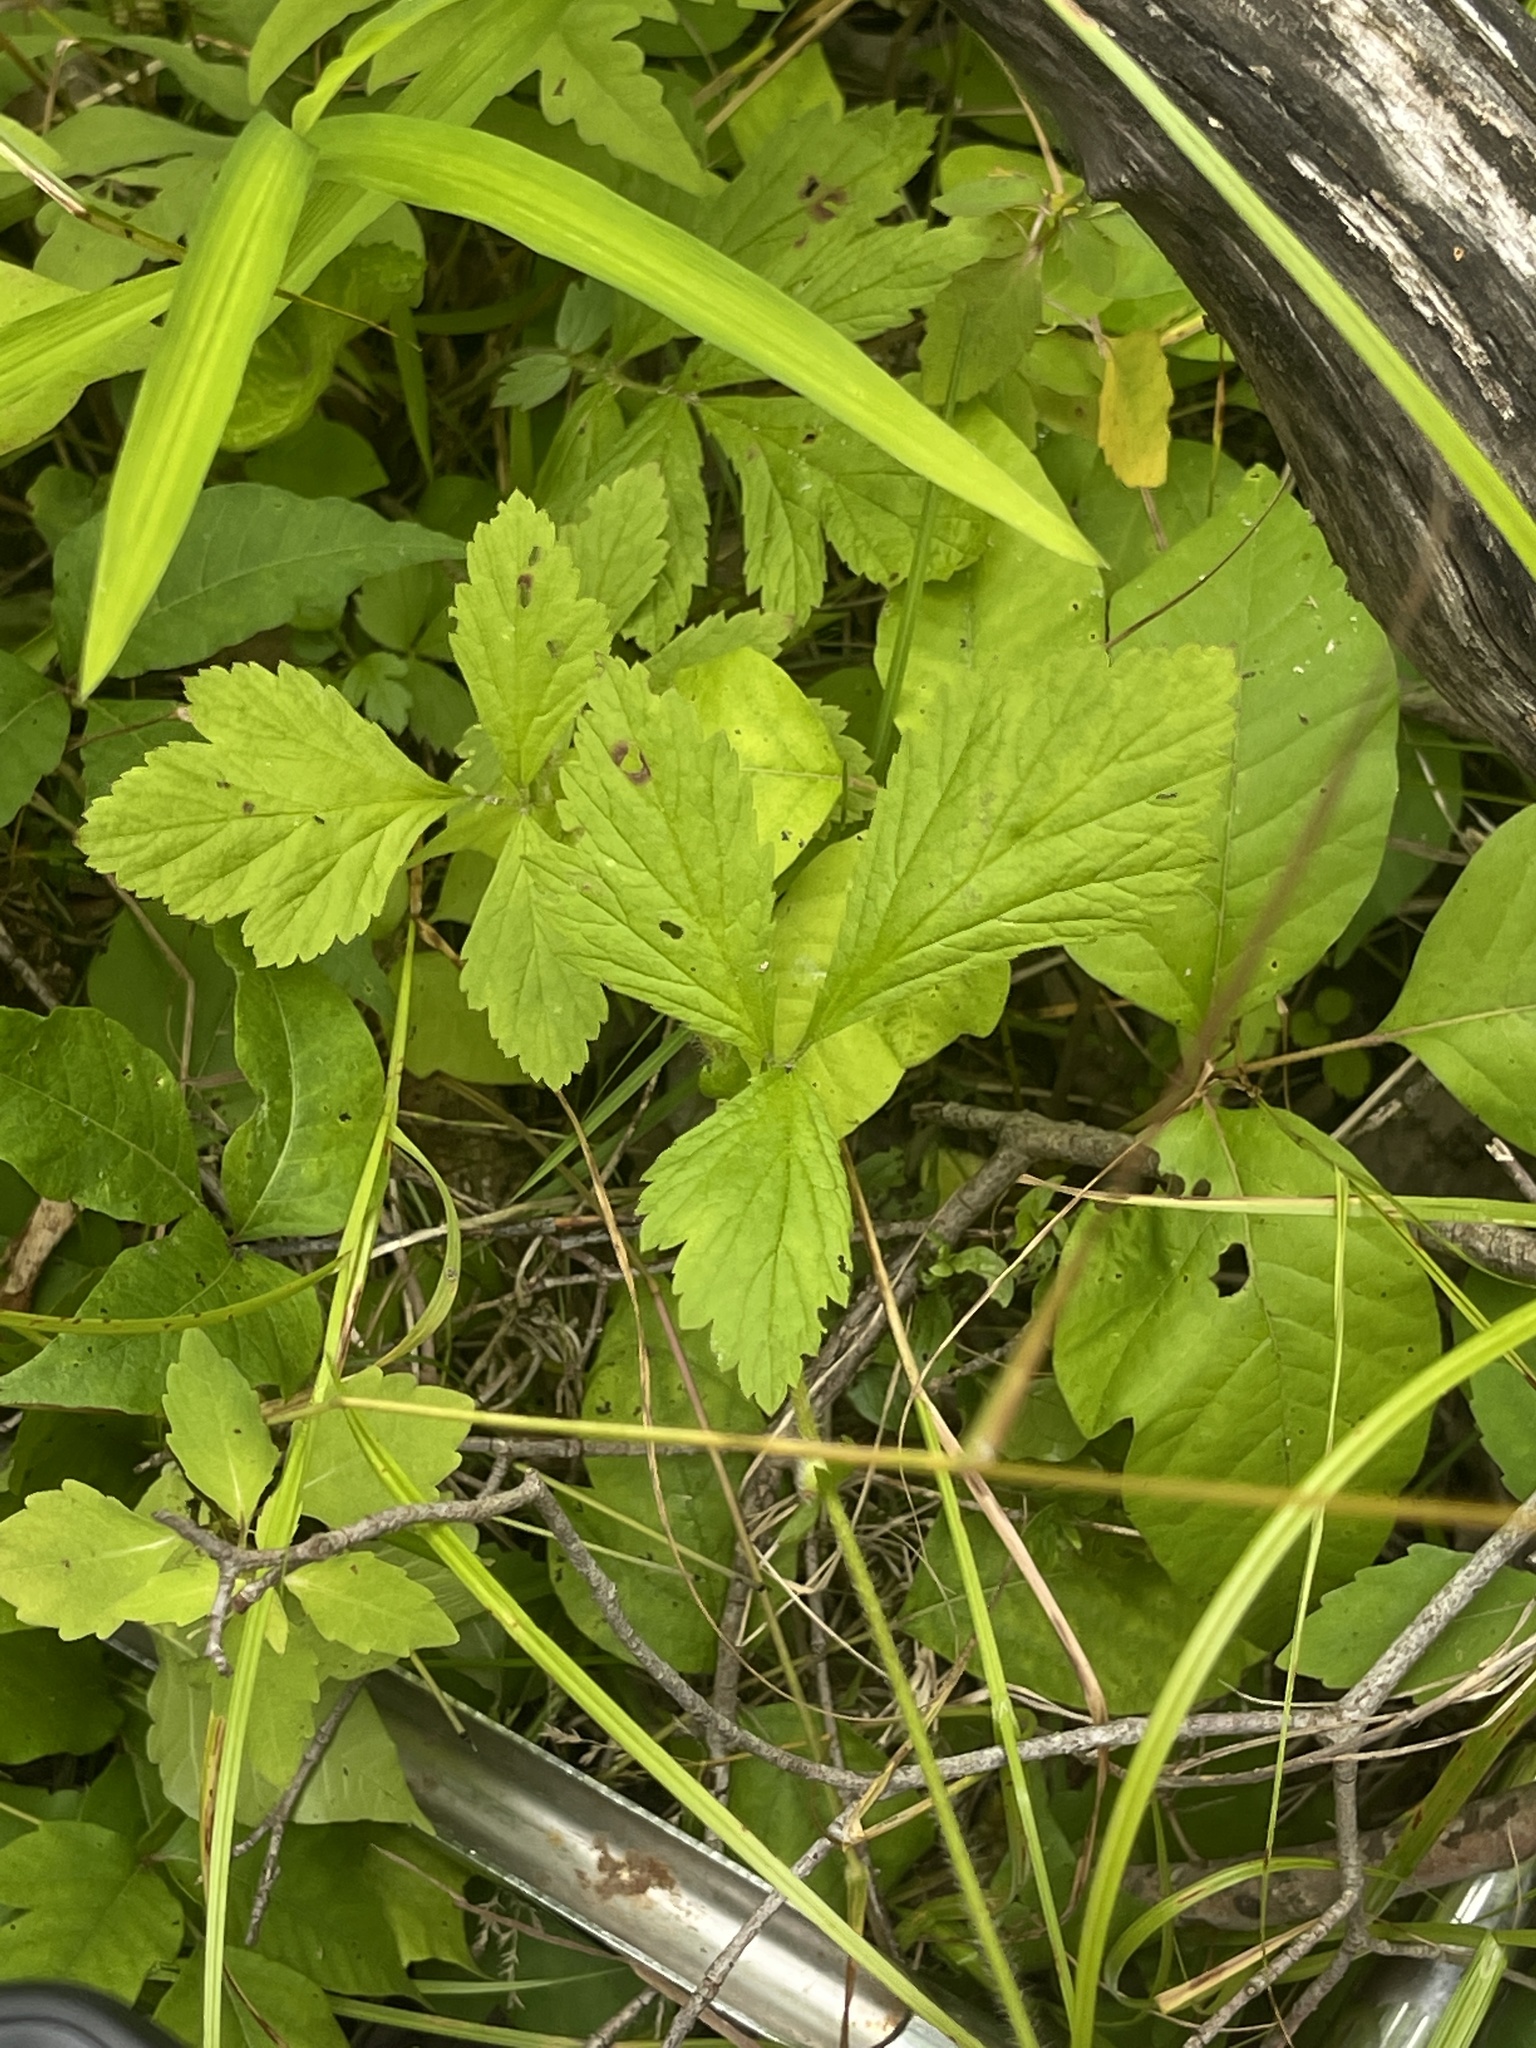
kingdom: Plantae
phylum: Tracheophyta
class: Magnoliopsida
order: Rosales
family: Rosaceae
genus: Geum
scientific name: Geum laciniatum
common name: Rough avens
